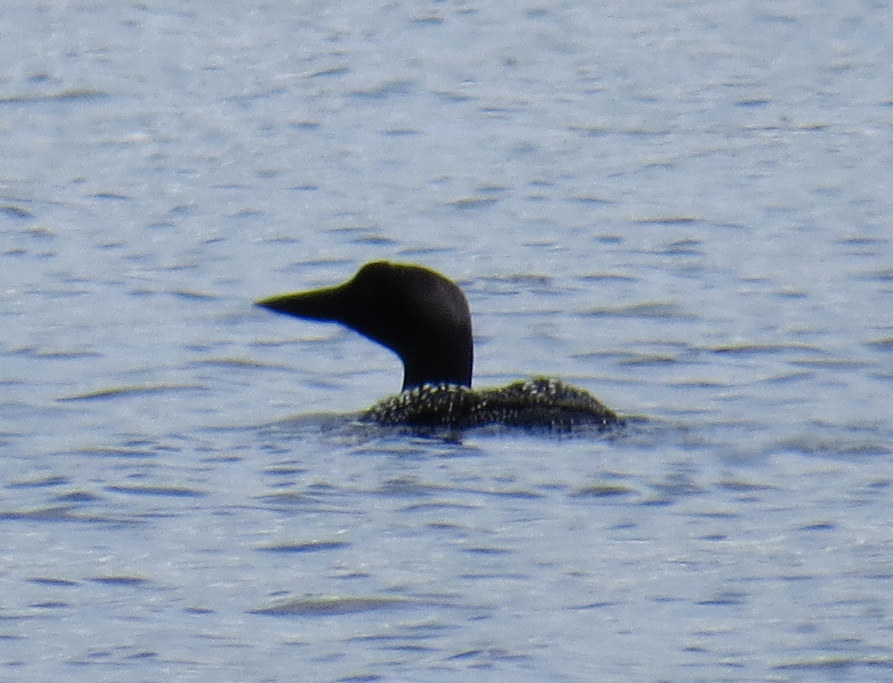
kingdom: Animalia
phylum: Chordata
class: Aves
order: Gaviiformes
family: Gaviidae
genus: Gavia
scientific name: Gavia immer
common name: Common loon
